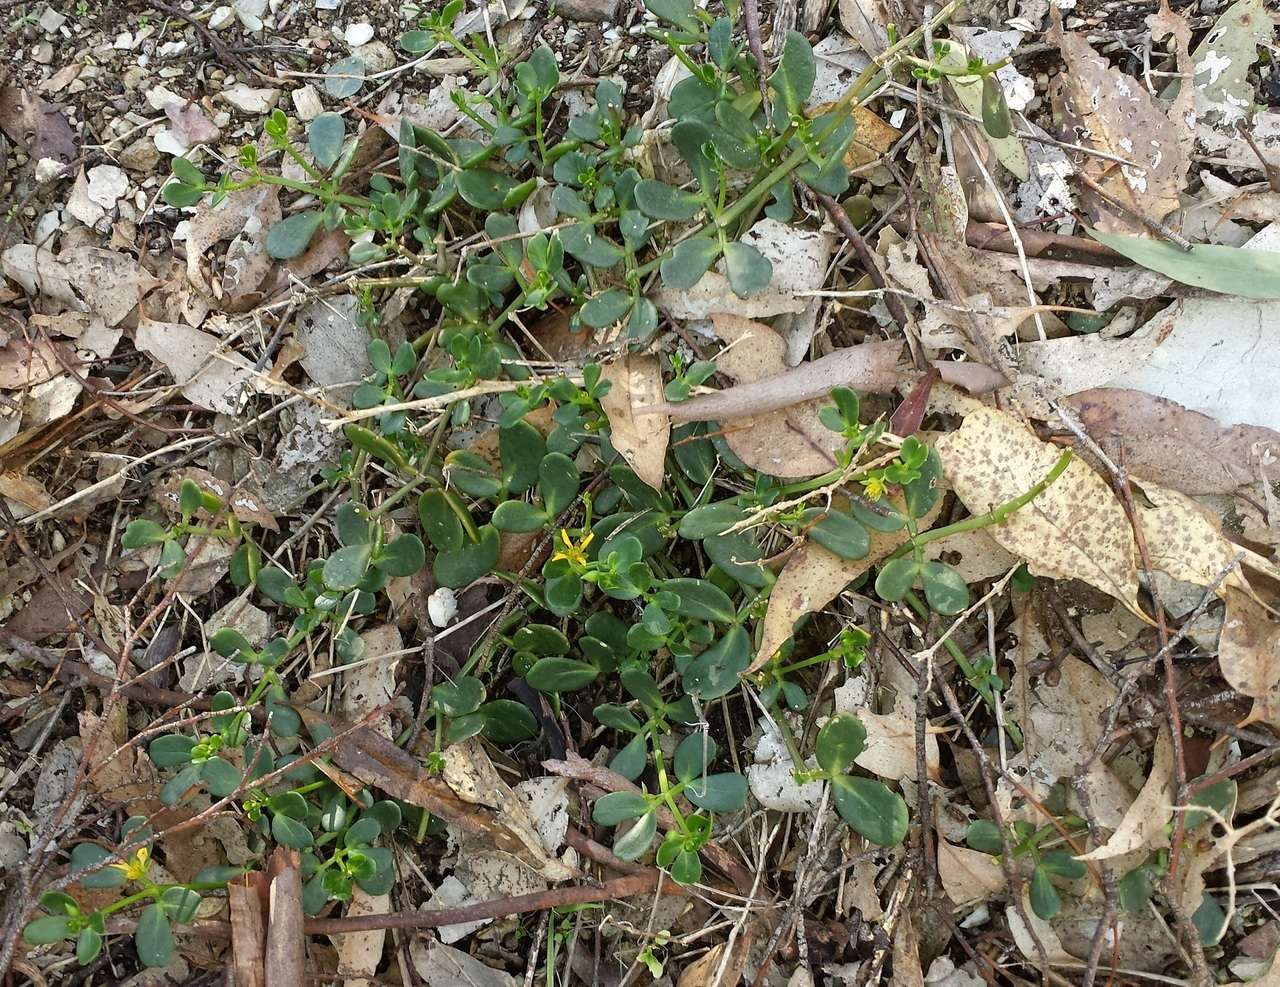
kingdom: Plantae
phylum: Tracheophyta
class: Magnoliopsida
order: Zygophyllales
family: Zygophyllaceae
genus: Roepera
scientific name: Roepera billardieri
